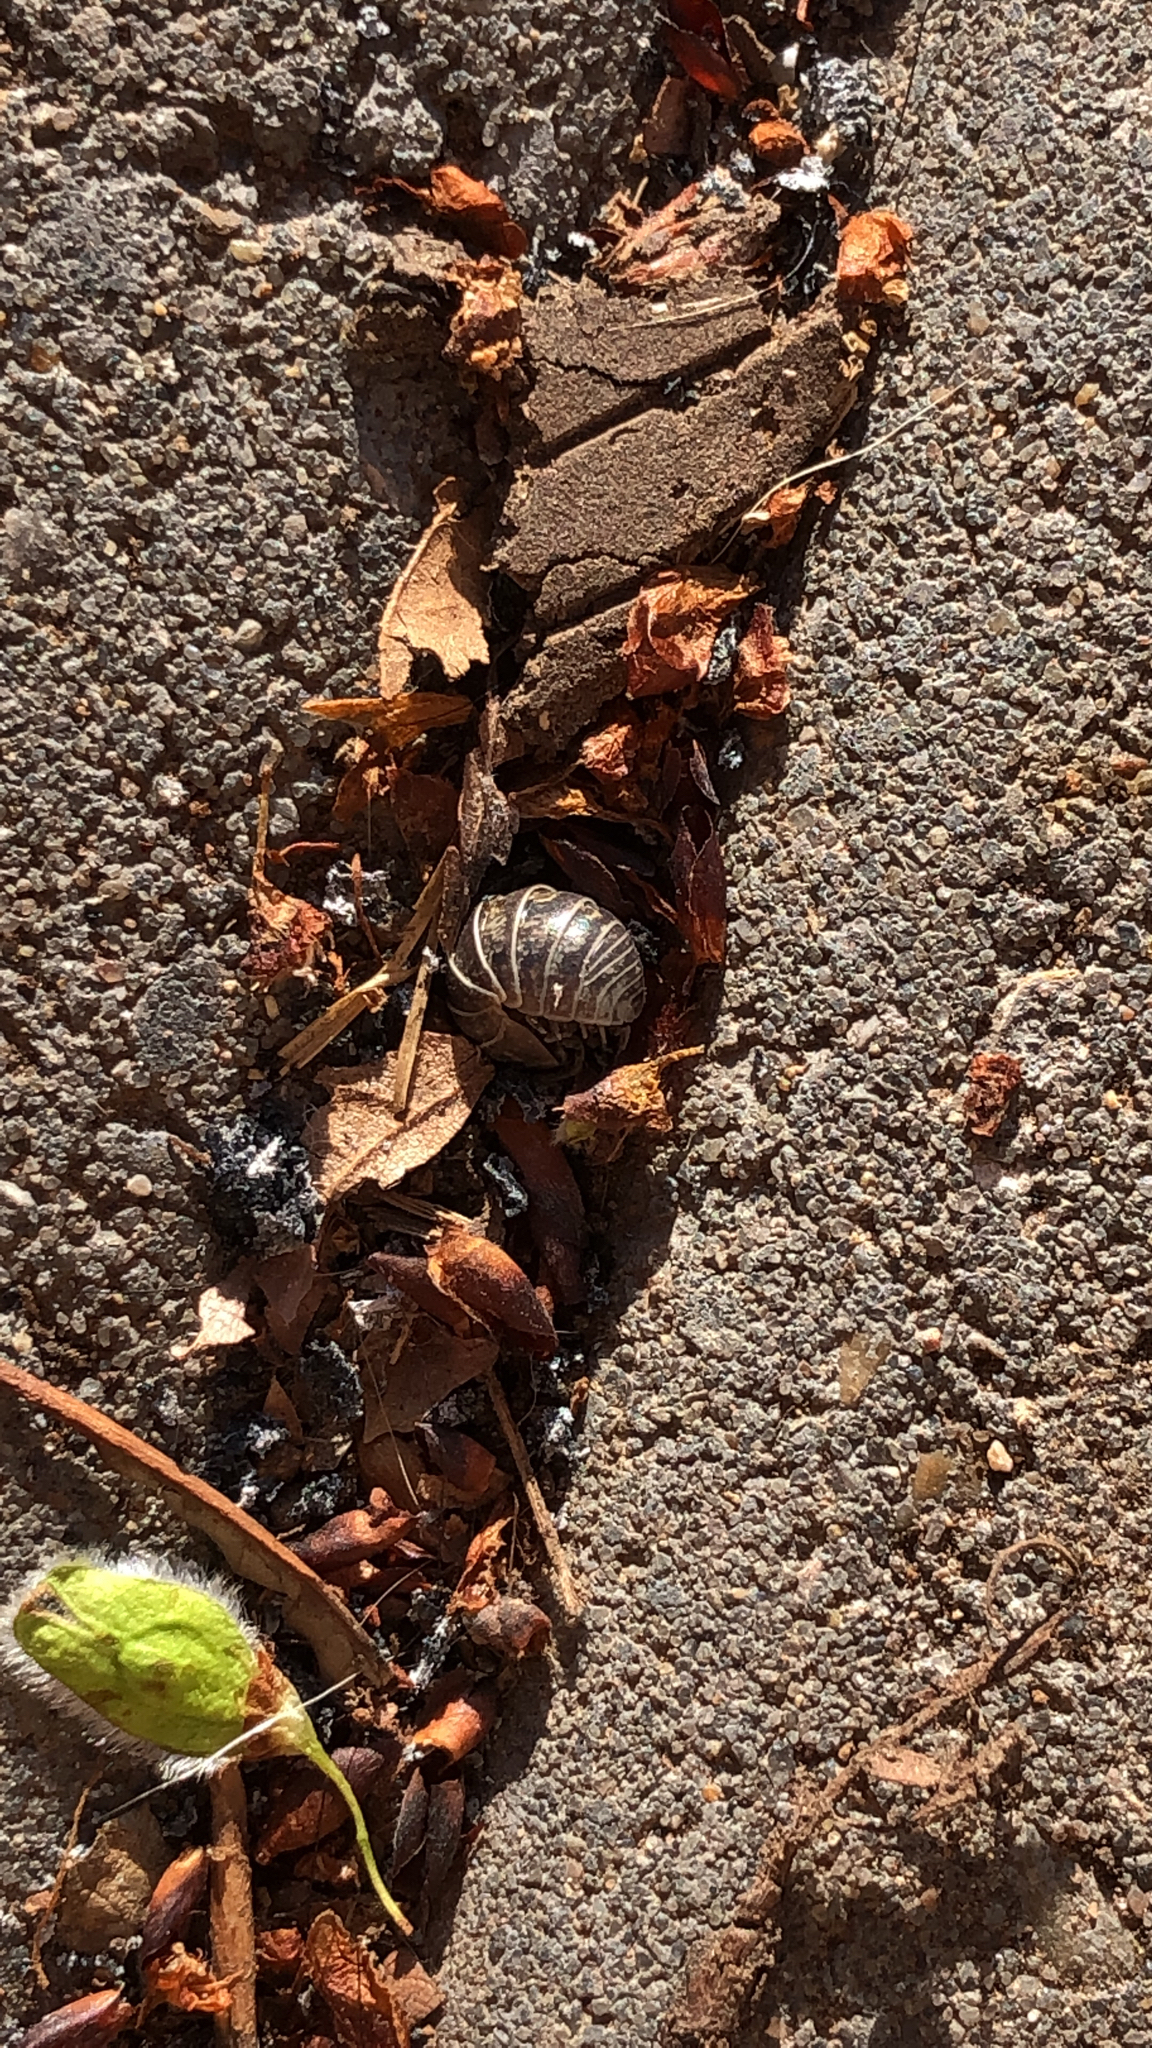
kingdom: Animalia
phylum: Arthropoda
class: Malacostraca
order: Isopoda
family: Armadillidiidae
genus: Armadillidium
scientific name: Armadillidium vulgare
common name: Common pill woodlouse
